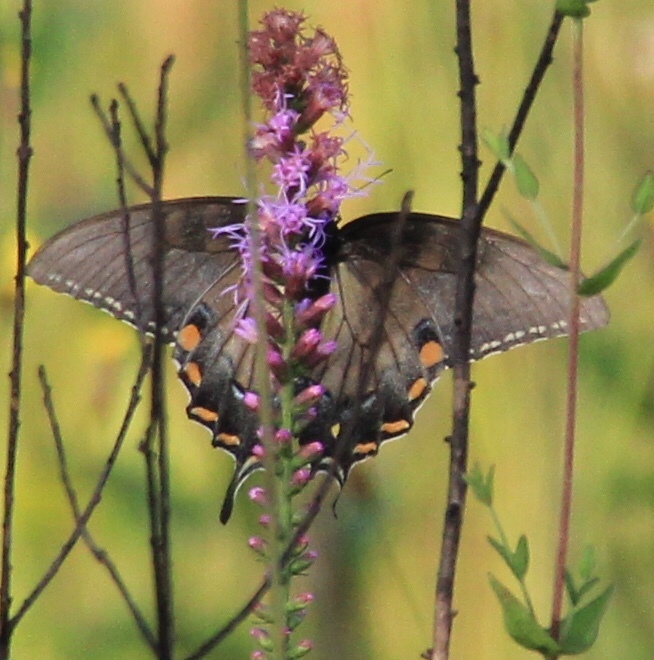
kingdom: Animalia
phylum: Arthropoda
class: Insecta
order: Lepidoptera
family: Papilionidae
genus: Papilio
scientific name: Papilio glaucus
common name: Tiger swallowtail
